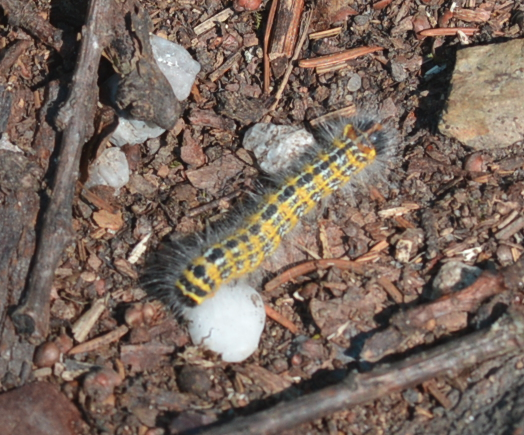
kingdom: Animalia
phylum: Arthropoda
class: Insecta
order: Lepidoptera
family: Notodontidae
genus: Phalera
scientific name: Phalera bucephala
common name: Buff-tip
